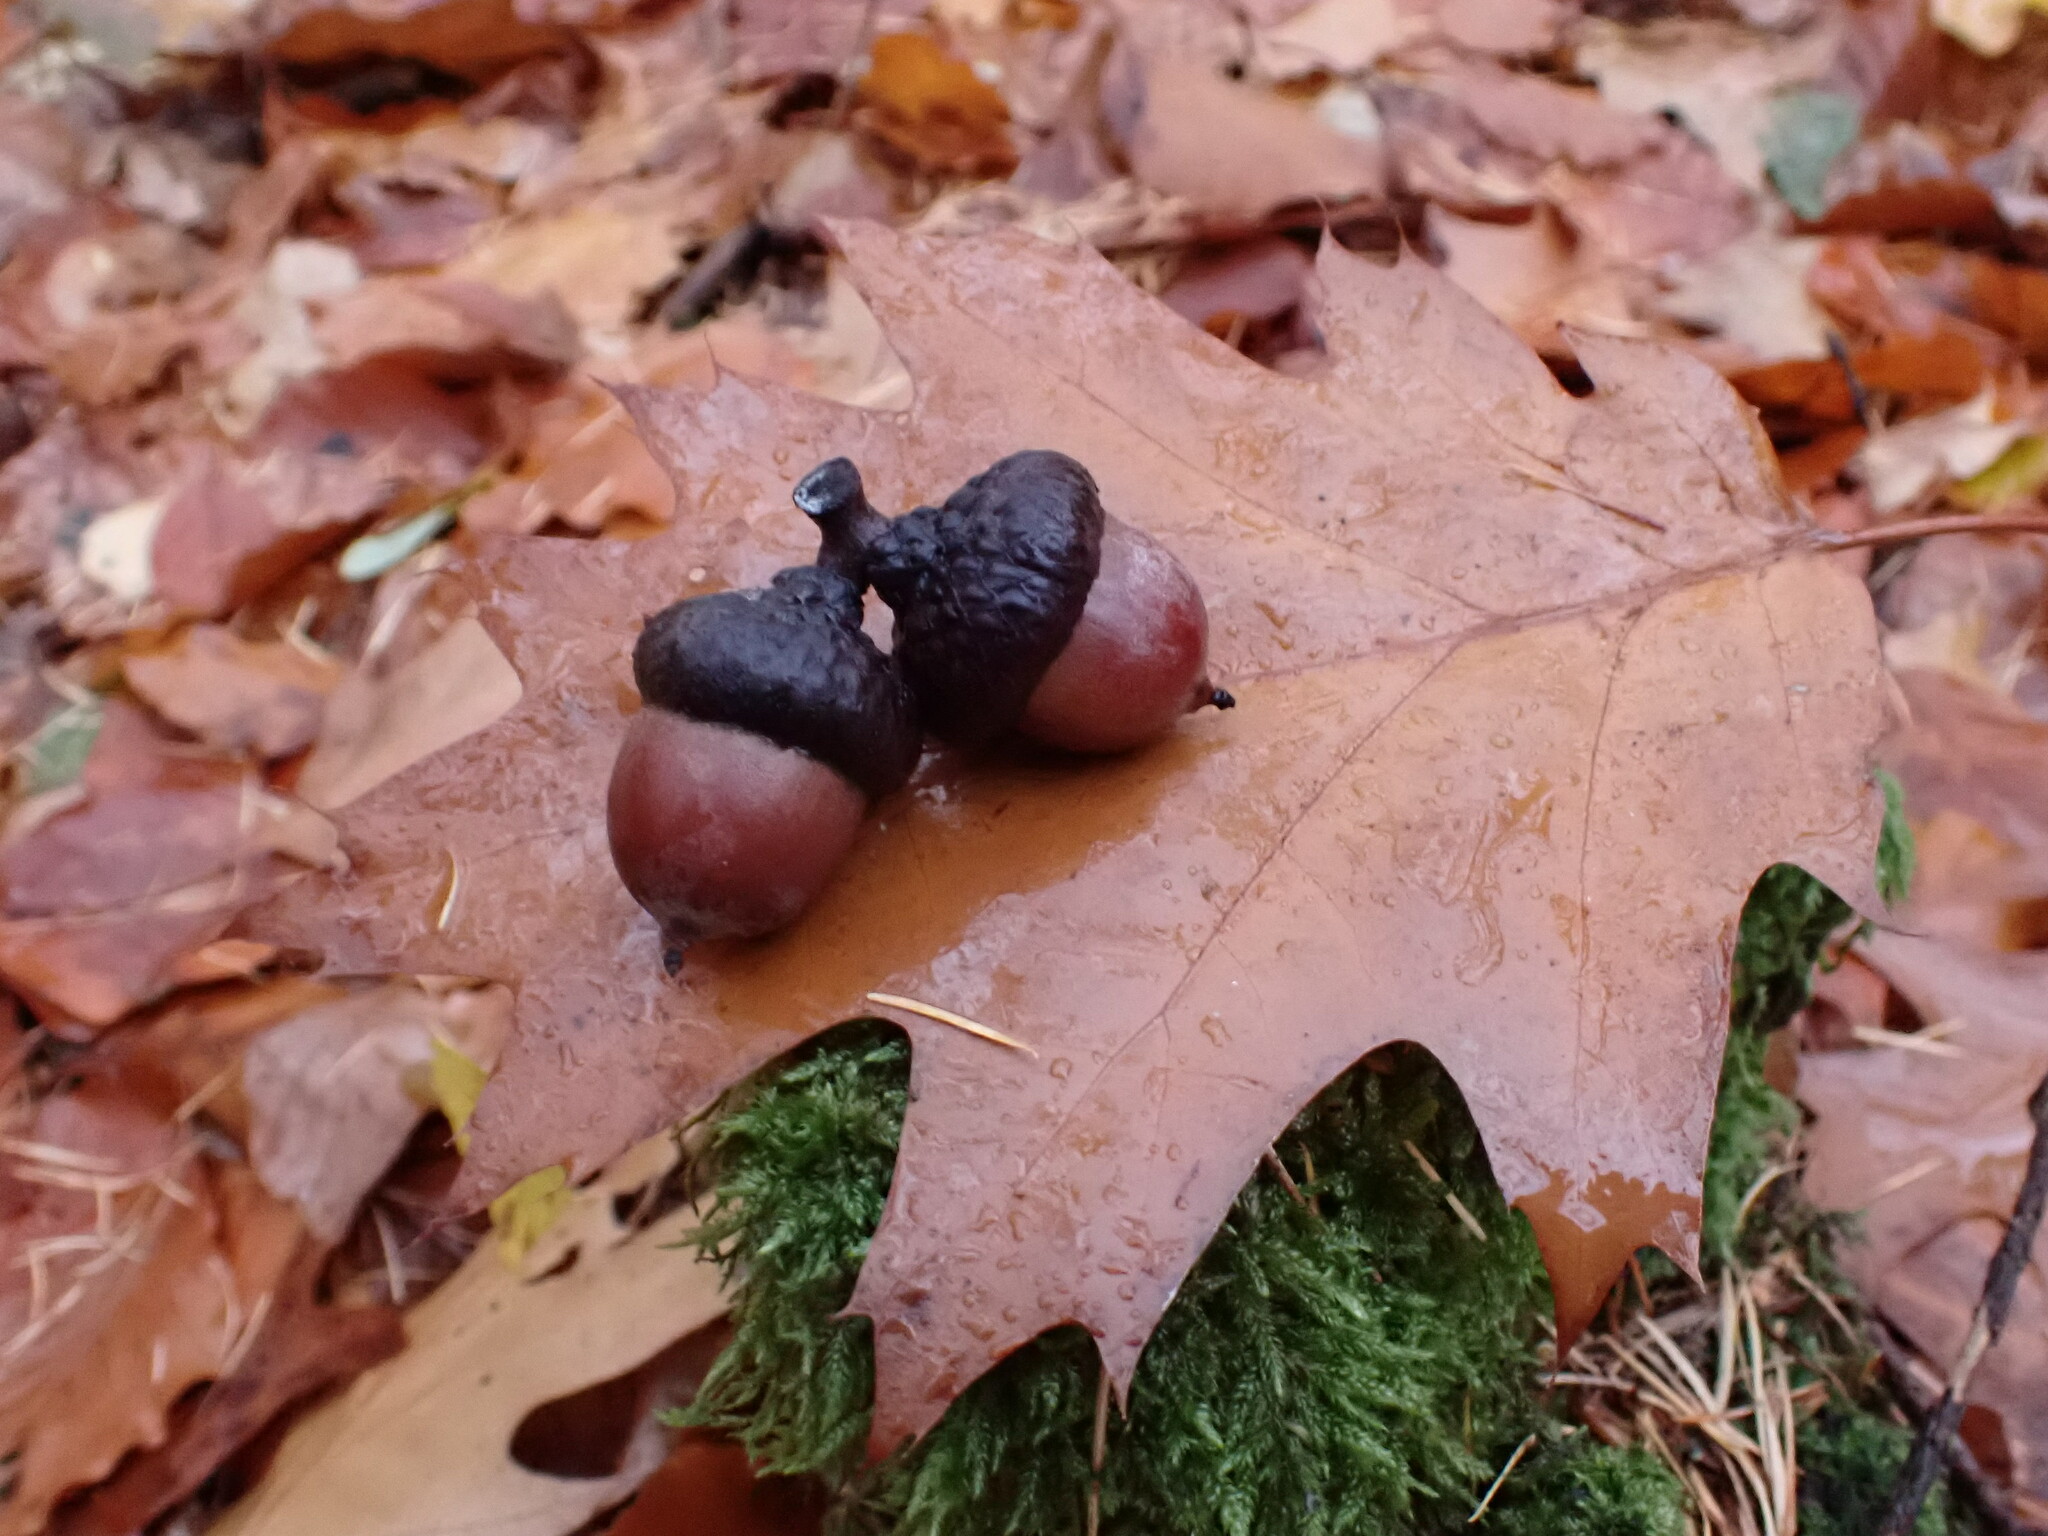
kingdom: Plantae
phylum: Tracheophyta
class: Magnoliopsida
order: Fagales
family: Fagaceae
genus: Quercus
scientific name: Quercus rubra
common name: Red oak
